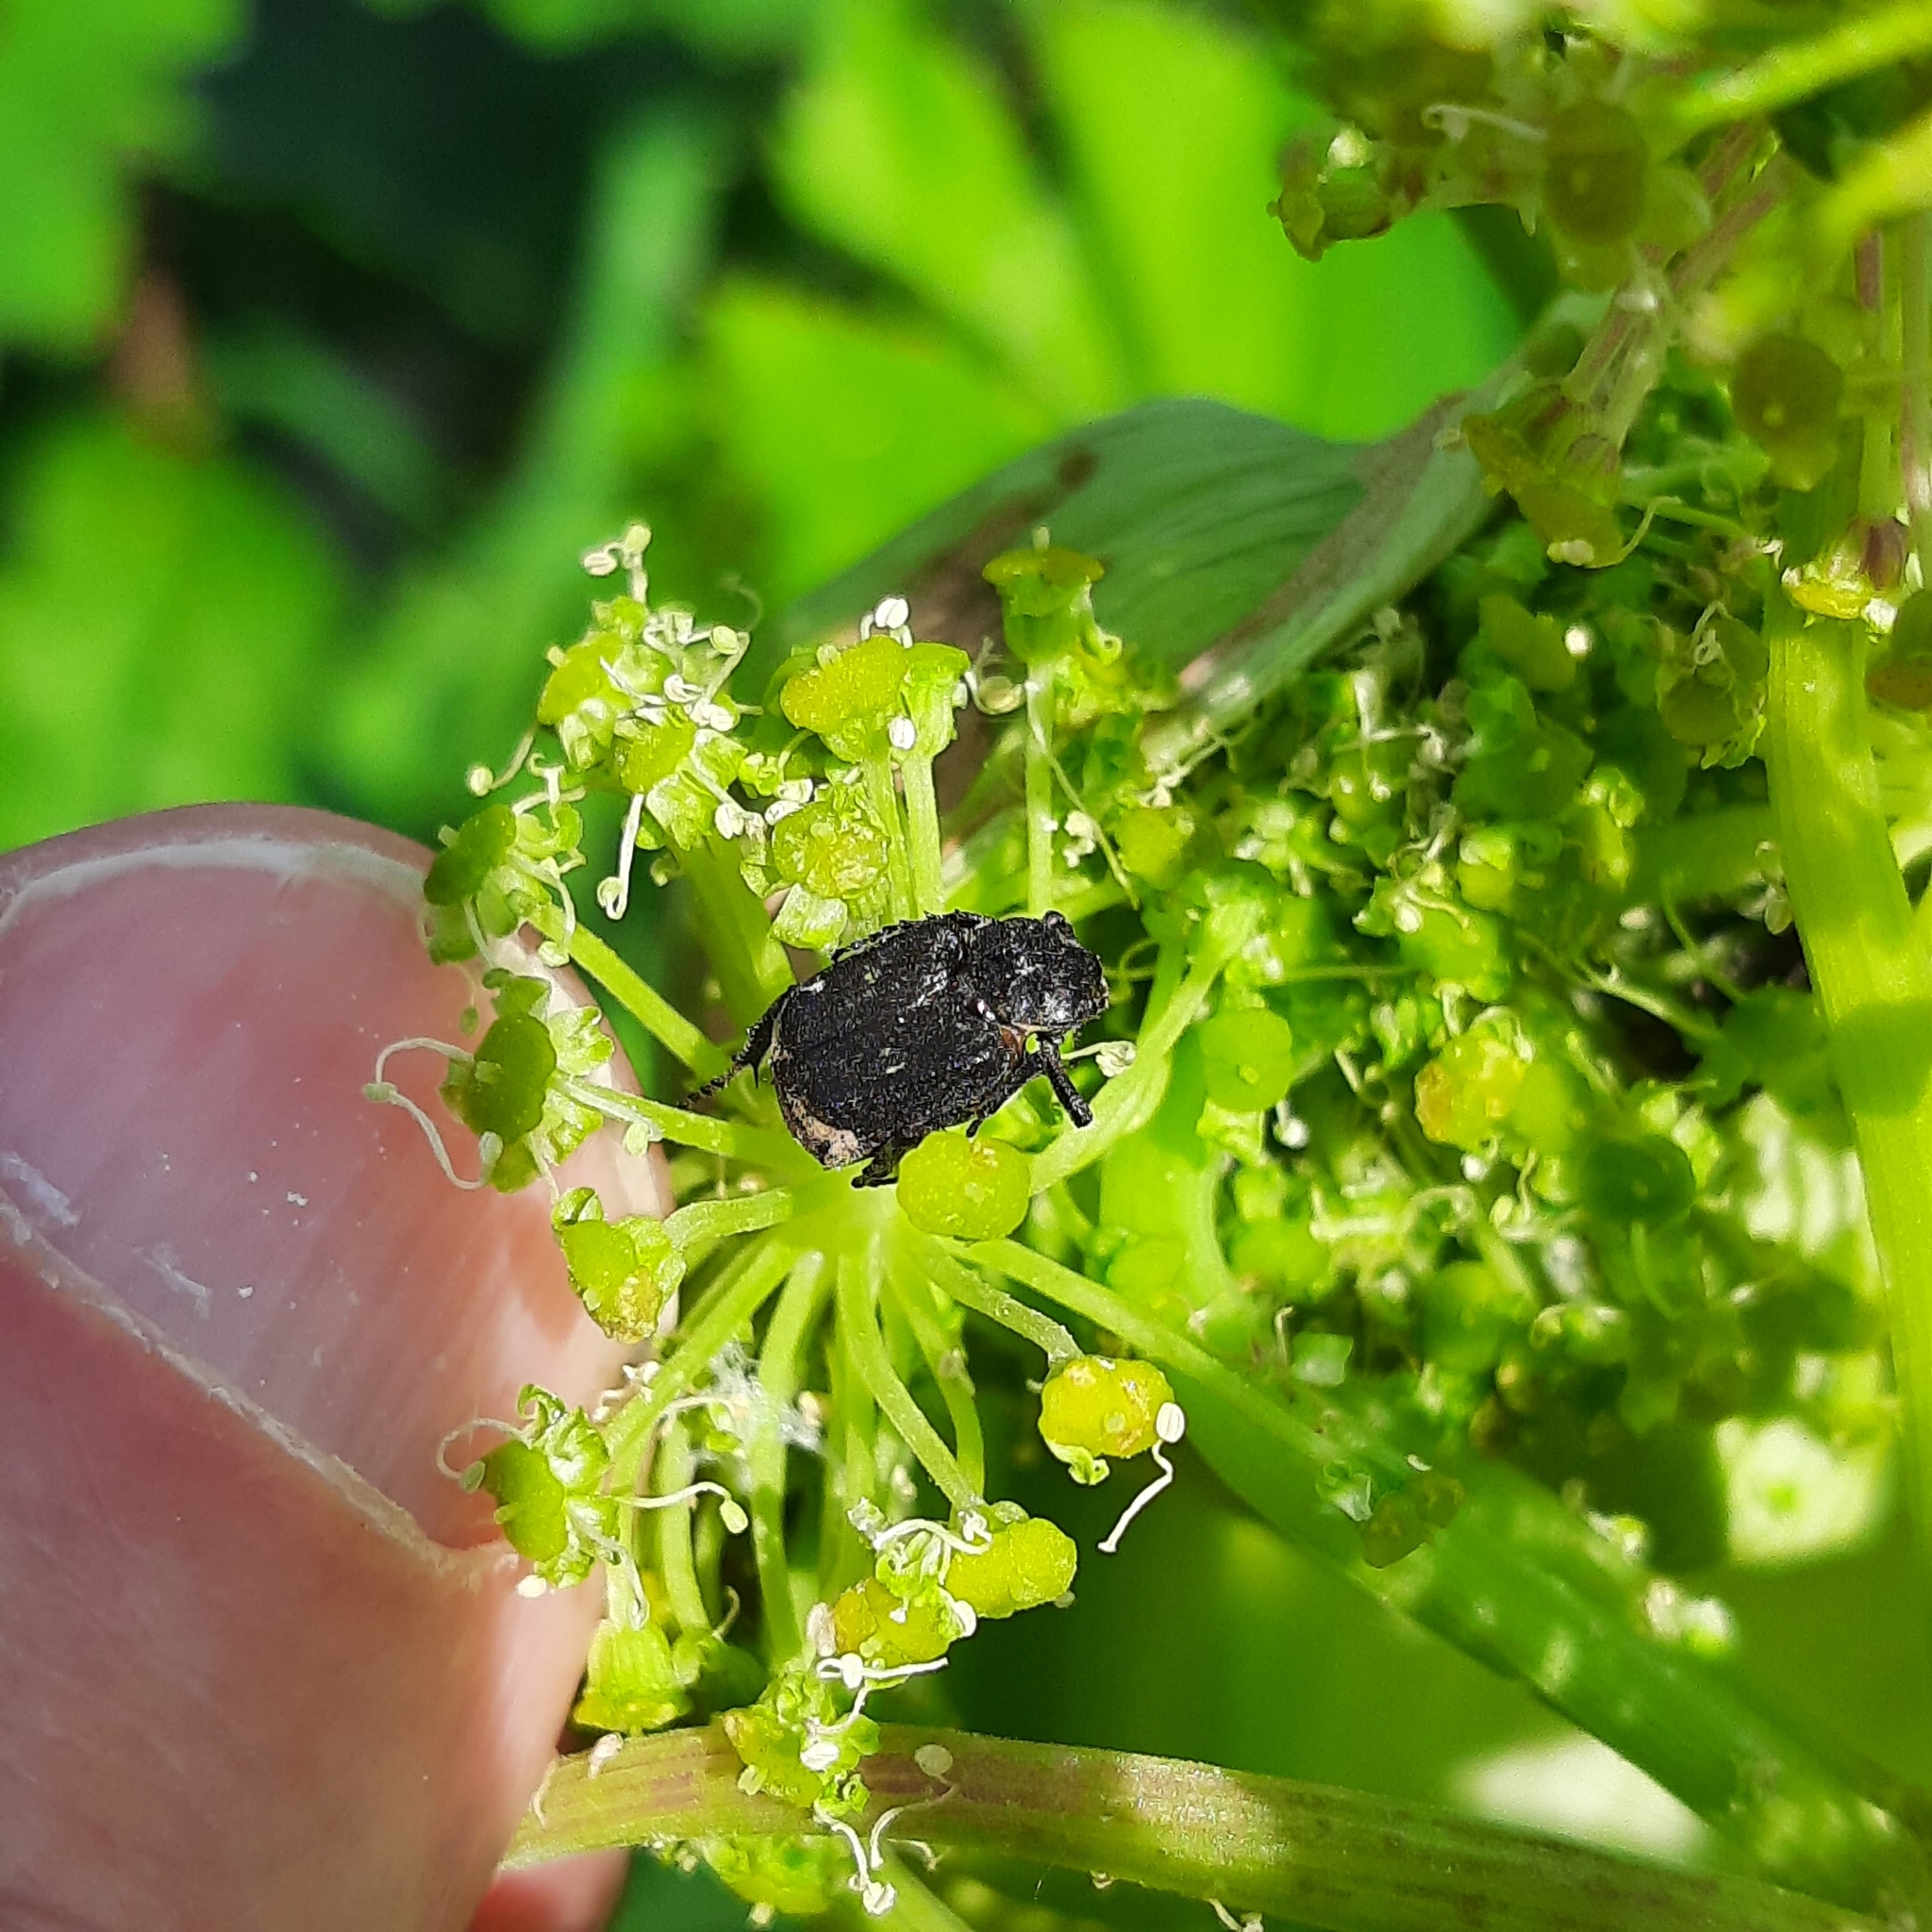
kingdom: Animalia
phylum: Arthropoda
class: Insecta
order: Coleoptera
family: Scarabaeidae
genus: Valgus
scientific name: Valgus hemipterus
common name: Bug flower chafer
